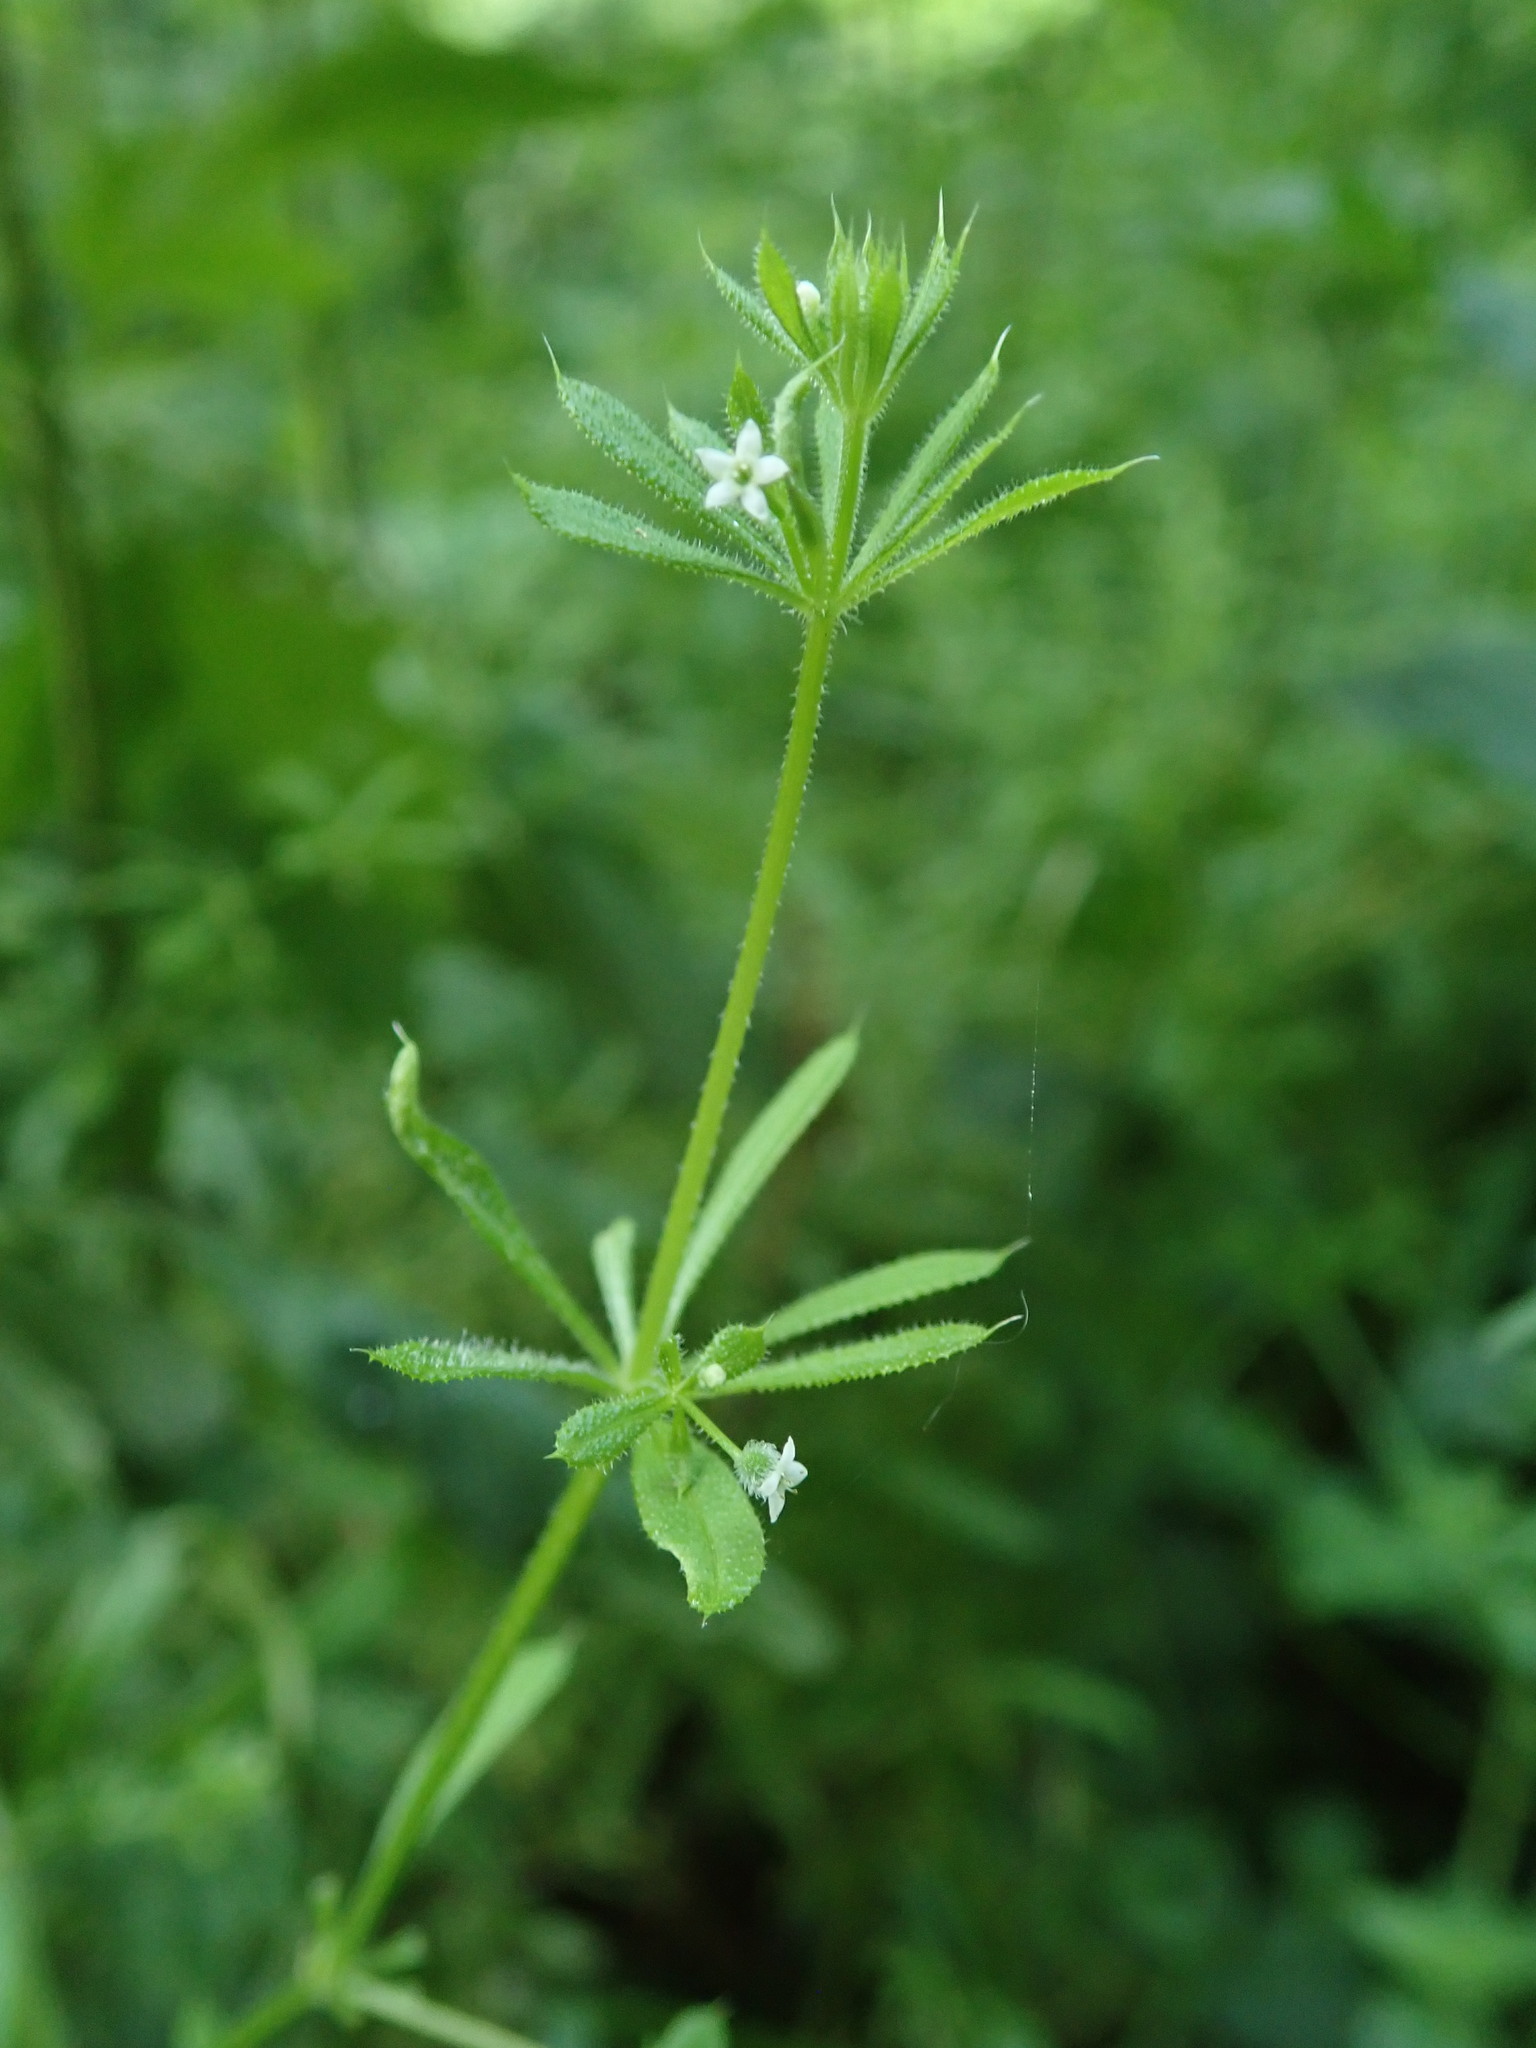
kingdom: Plantae
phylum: Tracheophyta
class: Magnoliopsida
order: Gentianales
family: Rubiaceae
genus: Galium
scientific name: Galium aparine
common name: Cleavers
